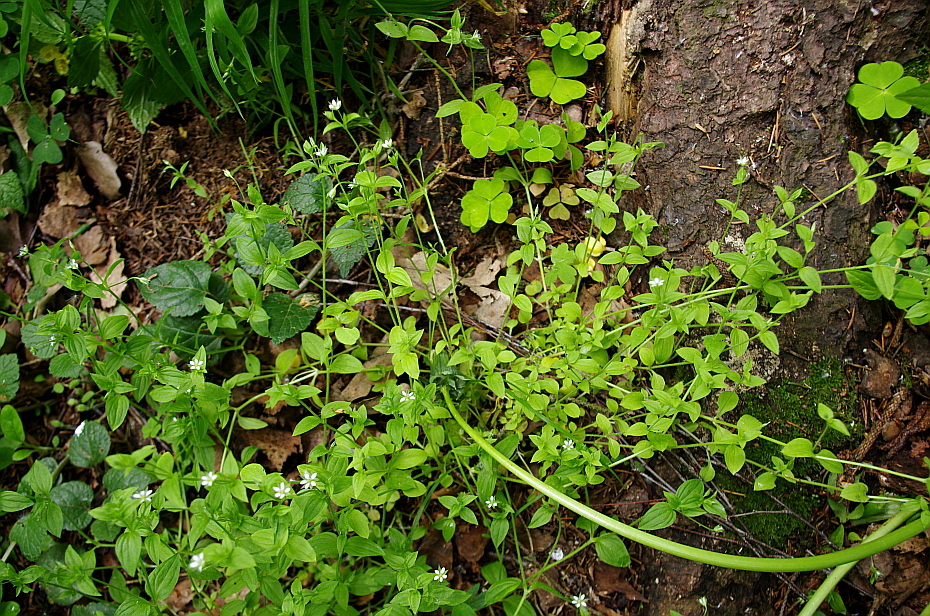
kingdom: Plantae
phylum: Tracheophyta
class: Magnoliopsida
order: Caryophyllales
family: Caryophyllaceae
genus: Moehringia
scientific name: Moehringia trinervia
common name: Three-nerved sandwort
